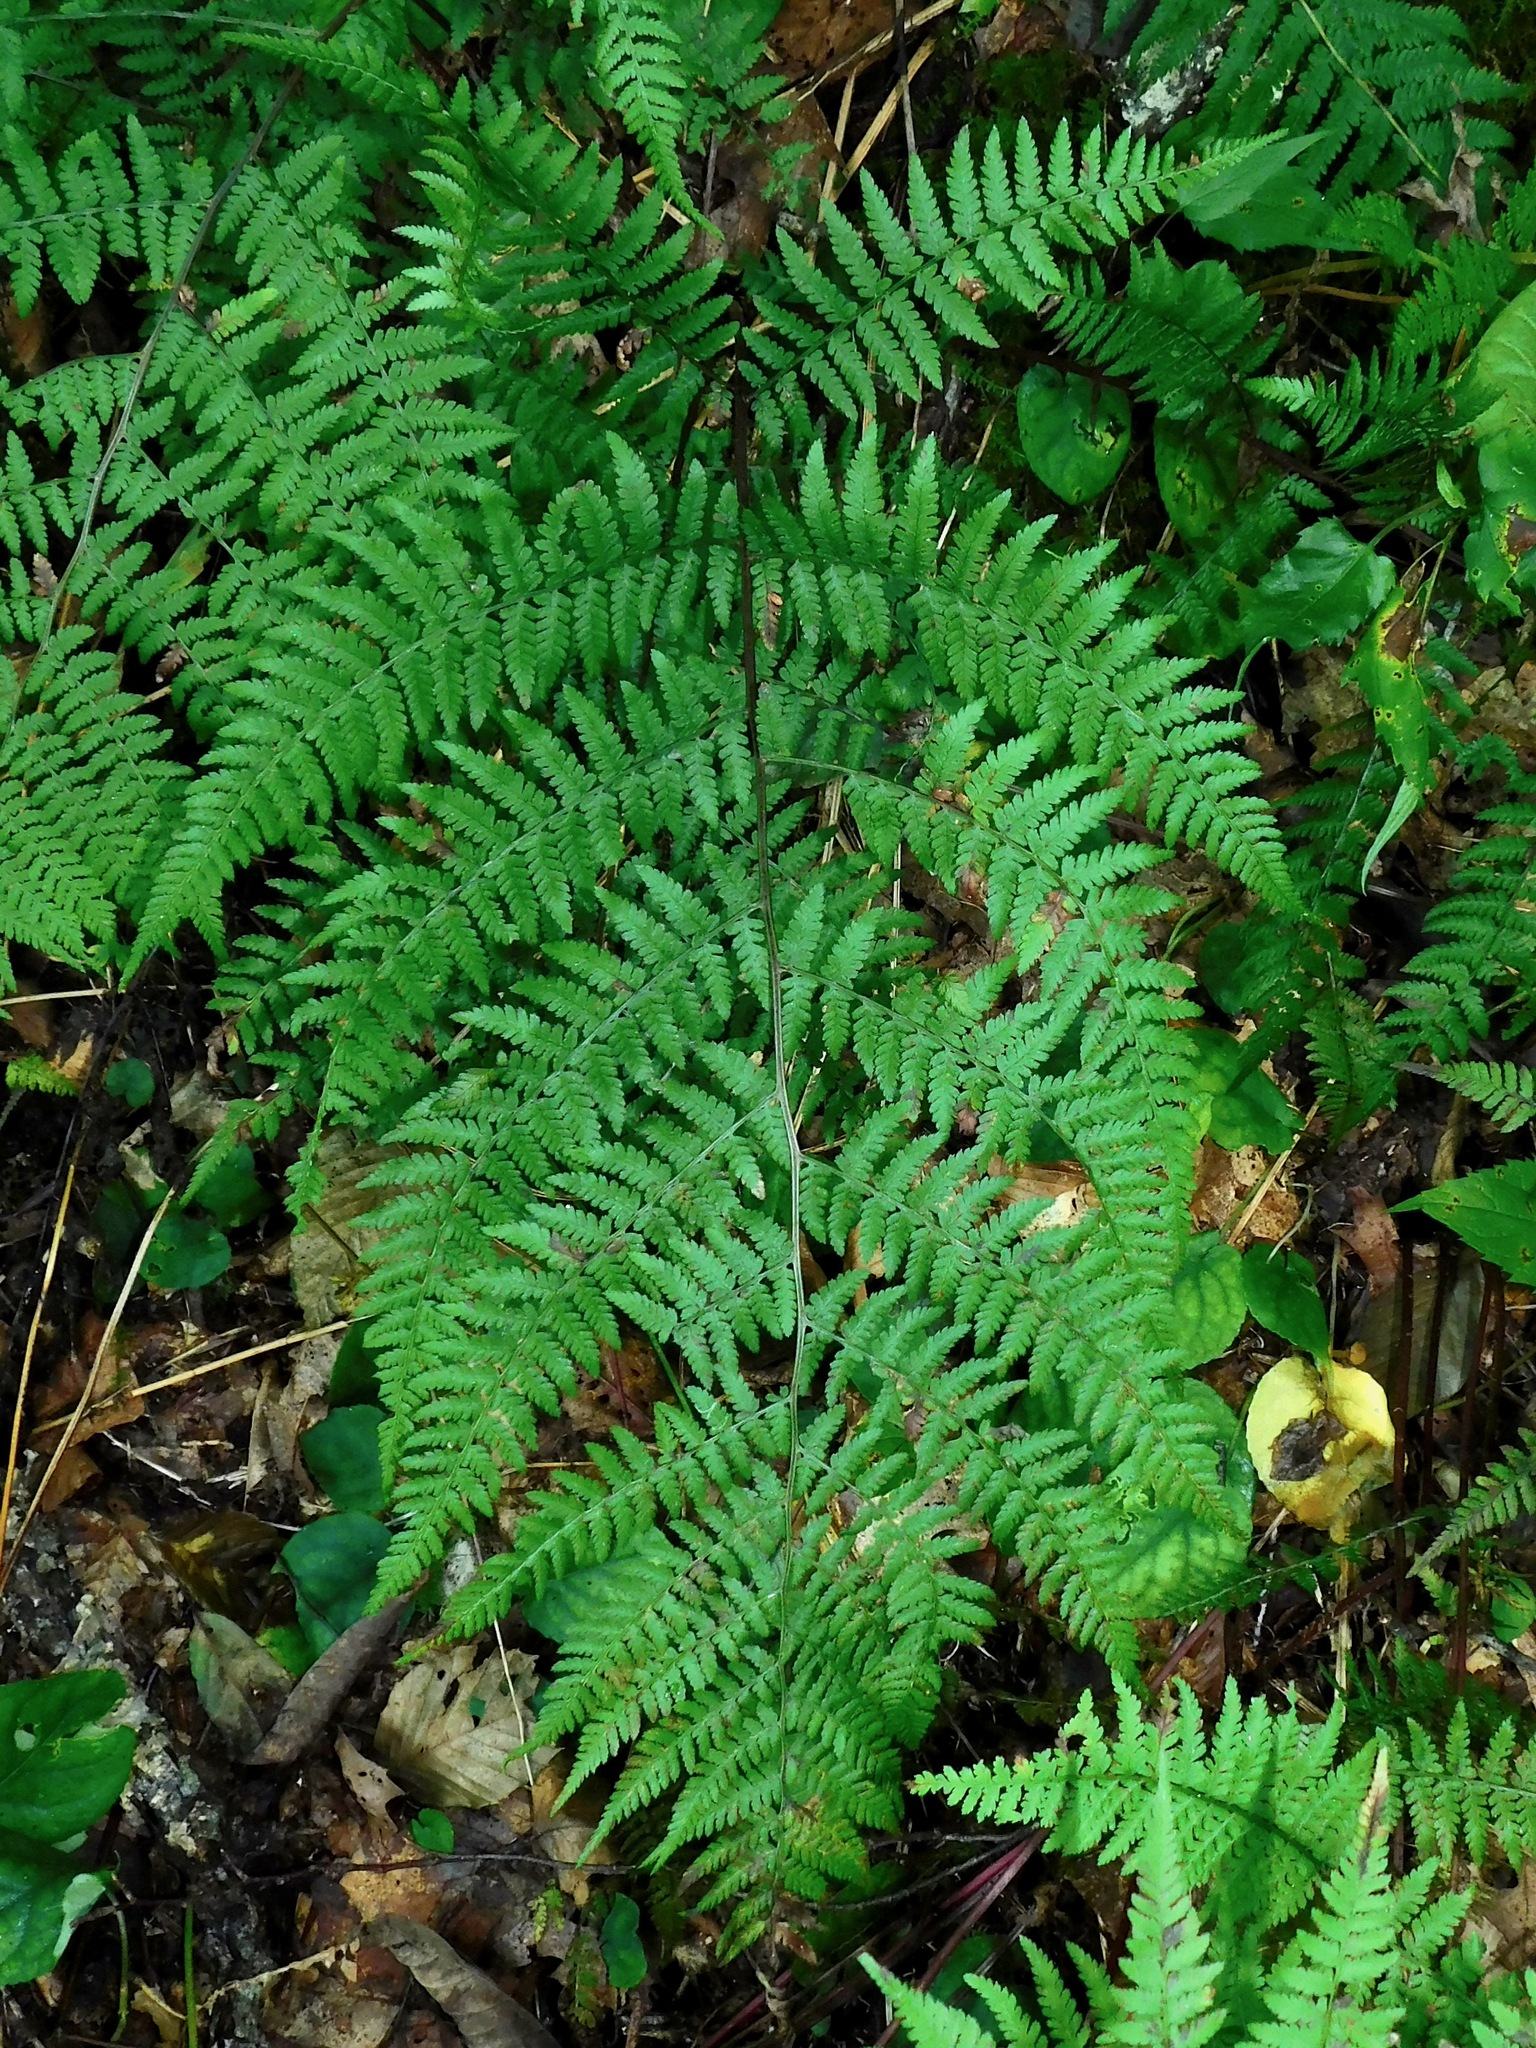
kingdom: Plantae
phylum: Tracheophyta
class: Polypodiopsida
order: Polypodiales
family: Athyriaceae
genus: Athyrium
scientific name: Athyrium asplenioides
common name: Southern lady fern
